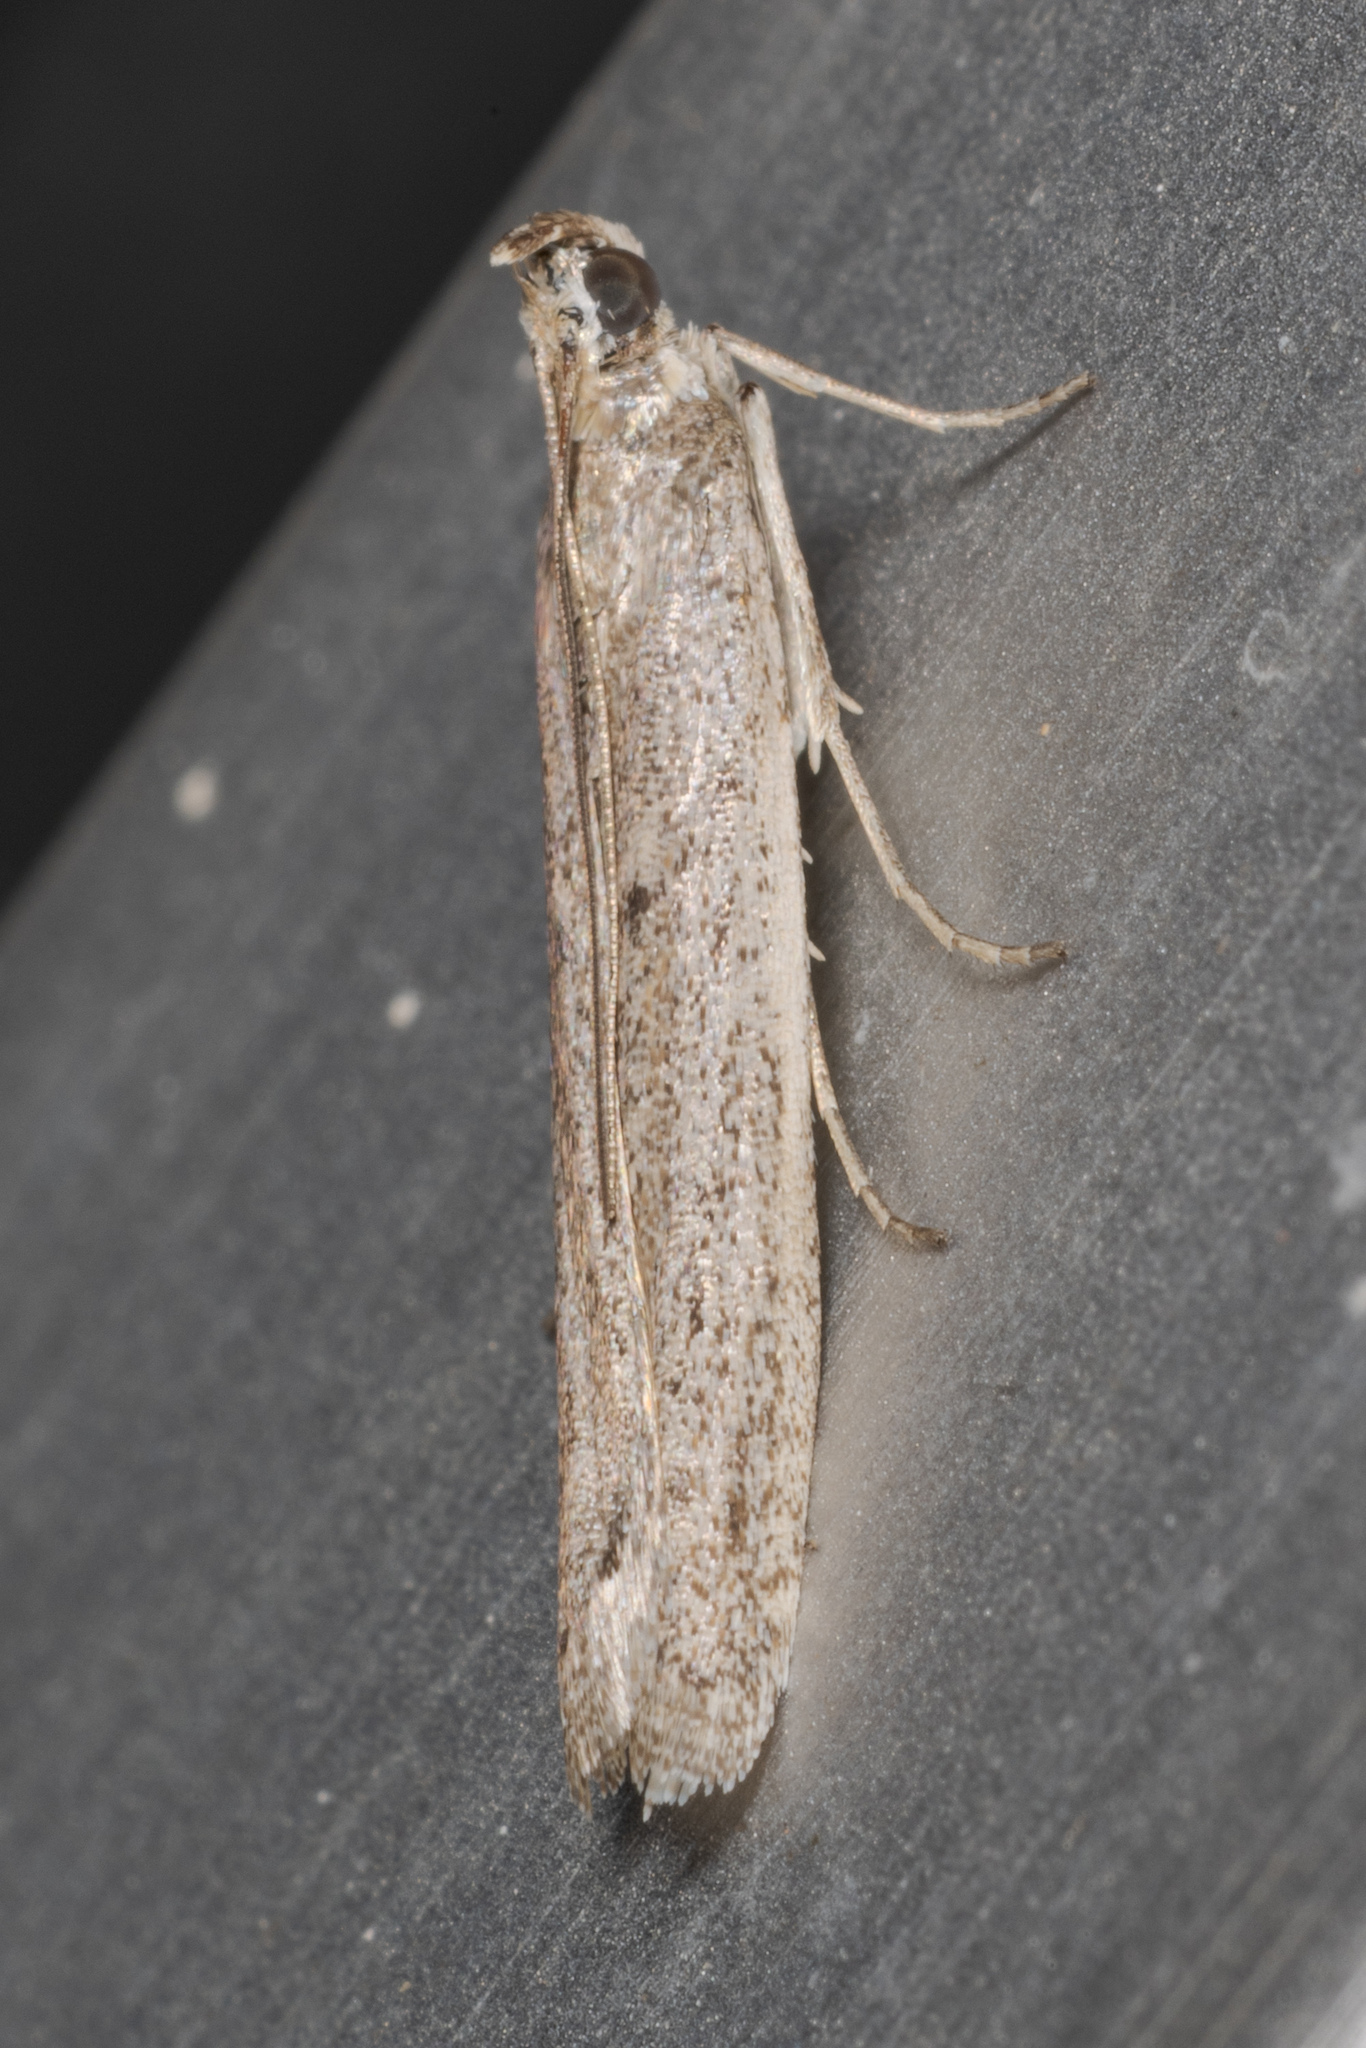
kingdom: Animalia
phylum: Arthropoda
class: Insecta
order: Lepidoptera
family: Pyralidae
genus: Homoeosoma
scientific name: Homoeosoma electella
